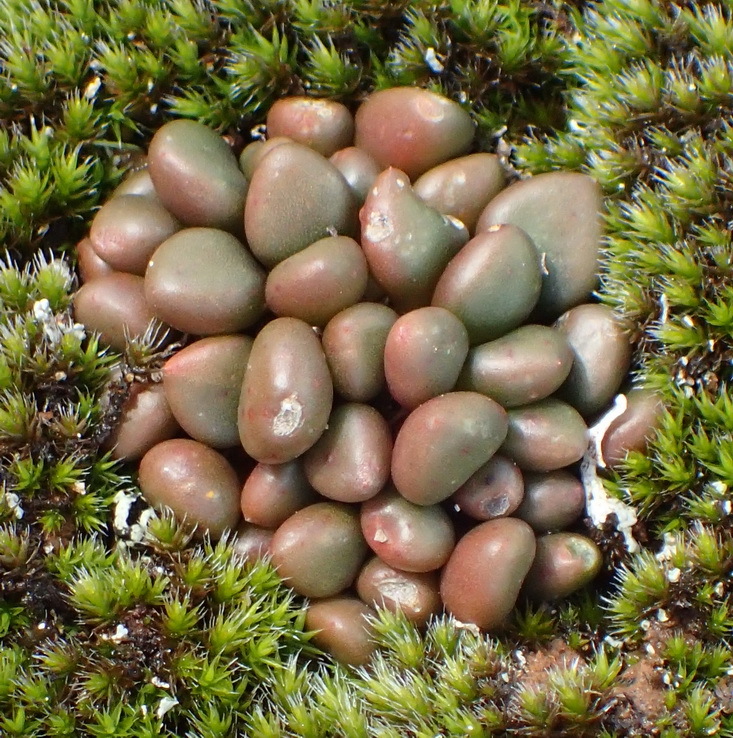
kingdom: Plantae
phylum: Tracheophyta
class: Magnoliopsida
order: Caryophyllales
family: Anacampserotaceae
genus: Anacampseros
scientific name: Anacampseros comptonii
